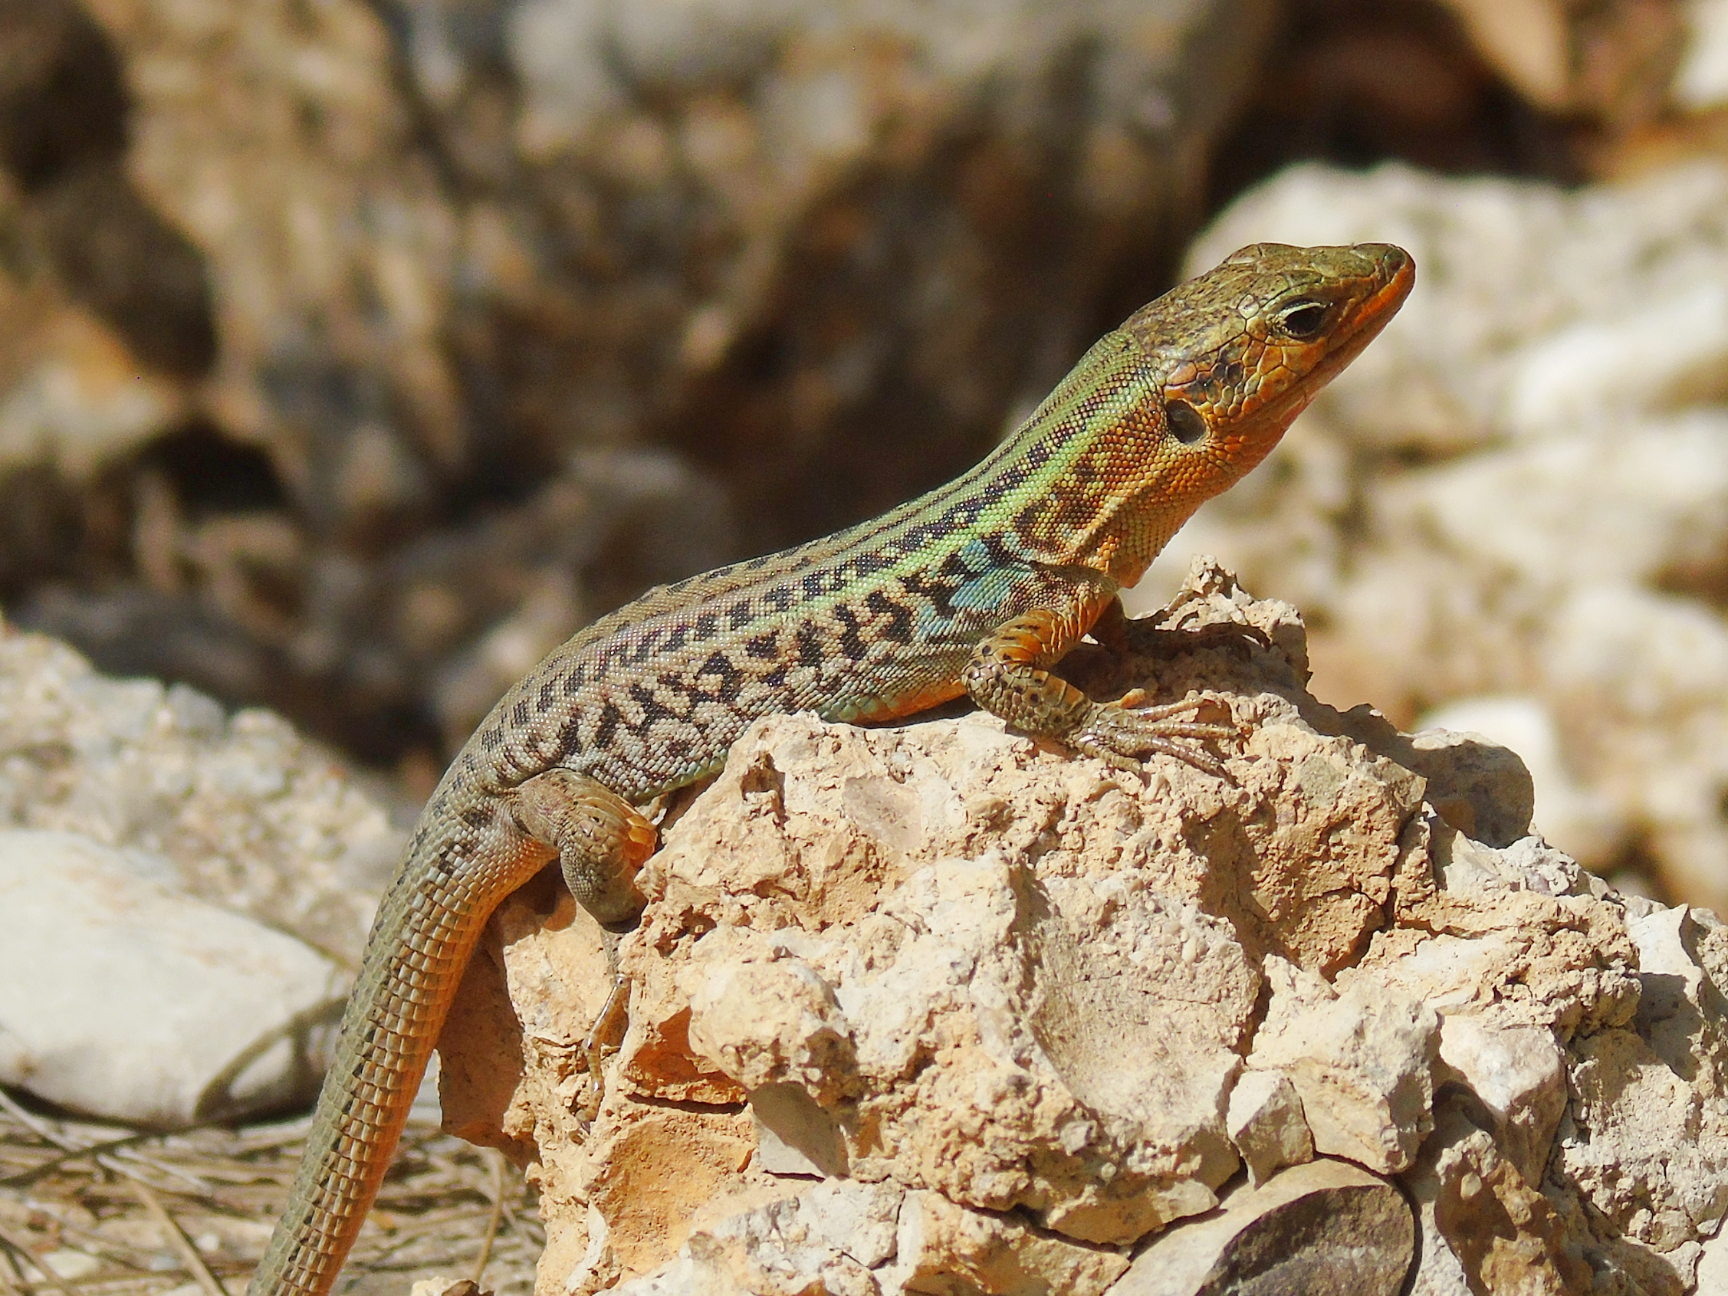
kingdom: Animalia
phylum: Chordata
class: Squamata
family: Lacertidae
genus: Podarcis
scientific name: Podarcis peloponnesiacus
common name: Peloponnese wall lizard
